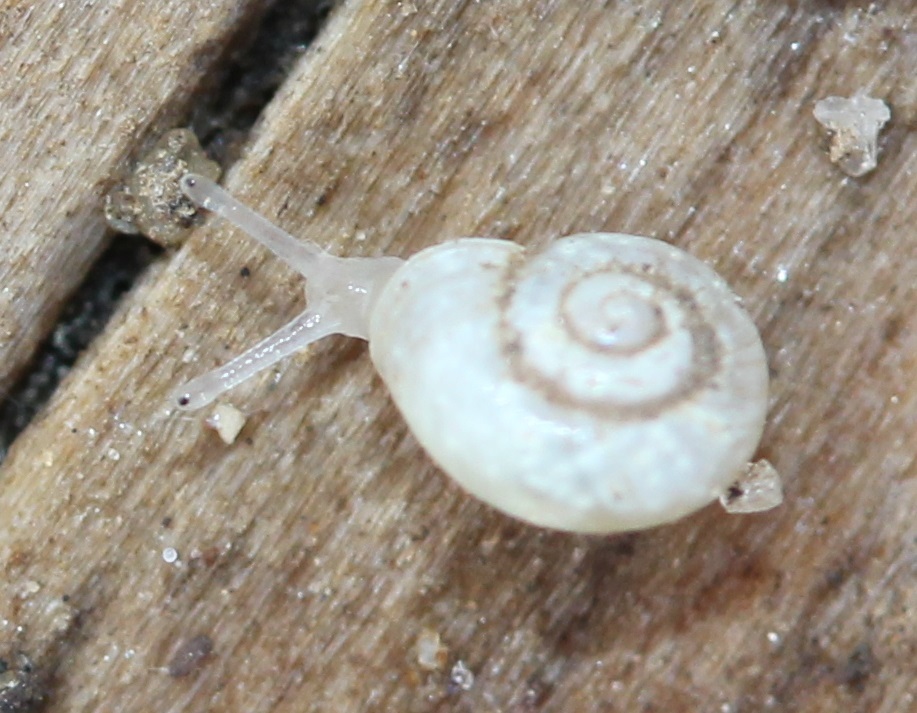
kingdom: Animalia
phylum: Mollusca
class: Gastropoda
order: Stylommatophora
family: Valloniidae
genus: Vallonia
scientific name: Vallonia excentrica
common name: Eccentric grass snail
